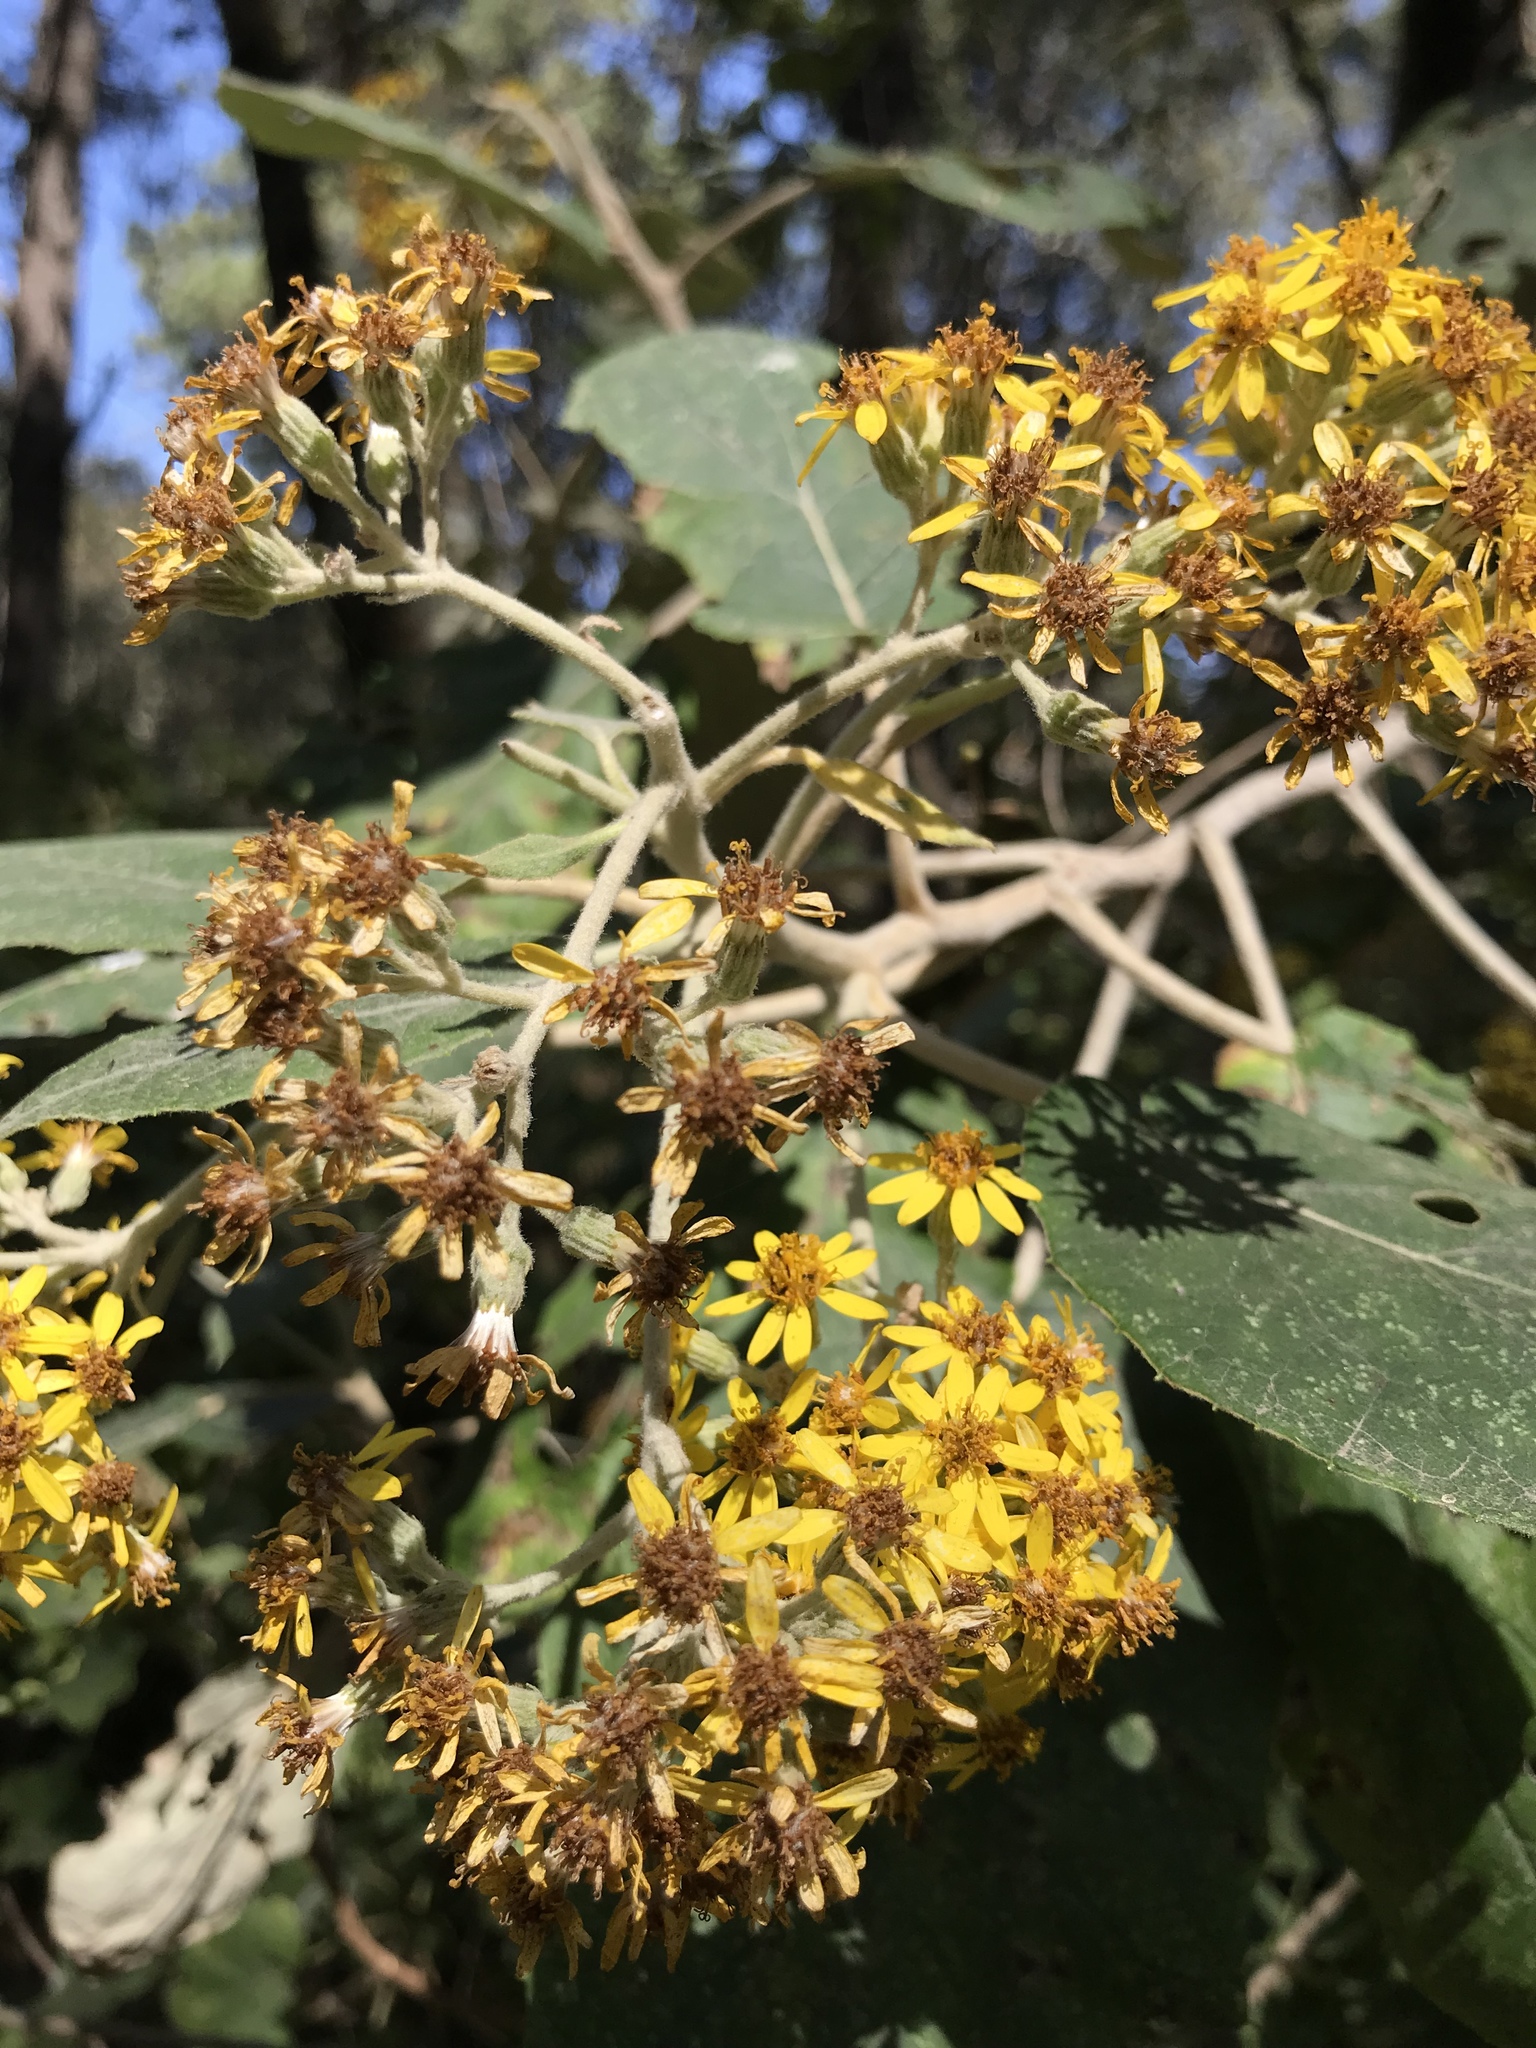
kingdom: Plantae
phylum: Tracheophyta
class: Magnoliopsida
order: Asterales
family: Asteraceae
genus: Roldana
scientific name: Roldana barba-johannis
